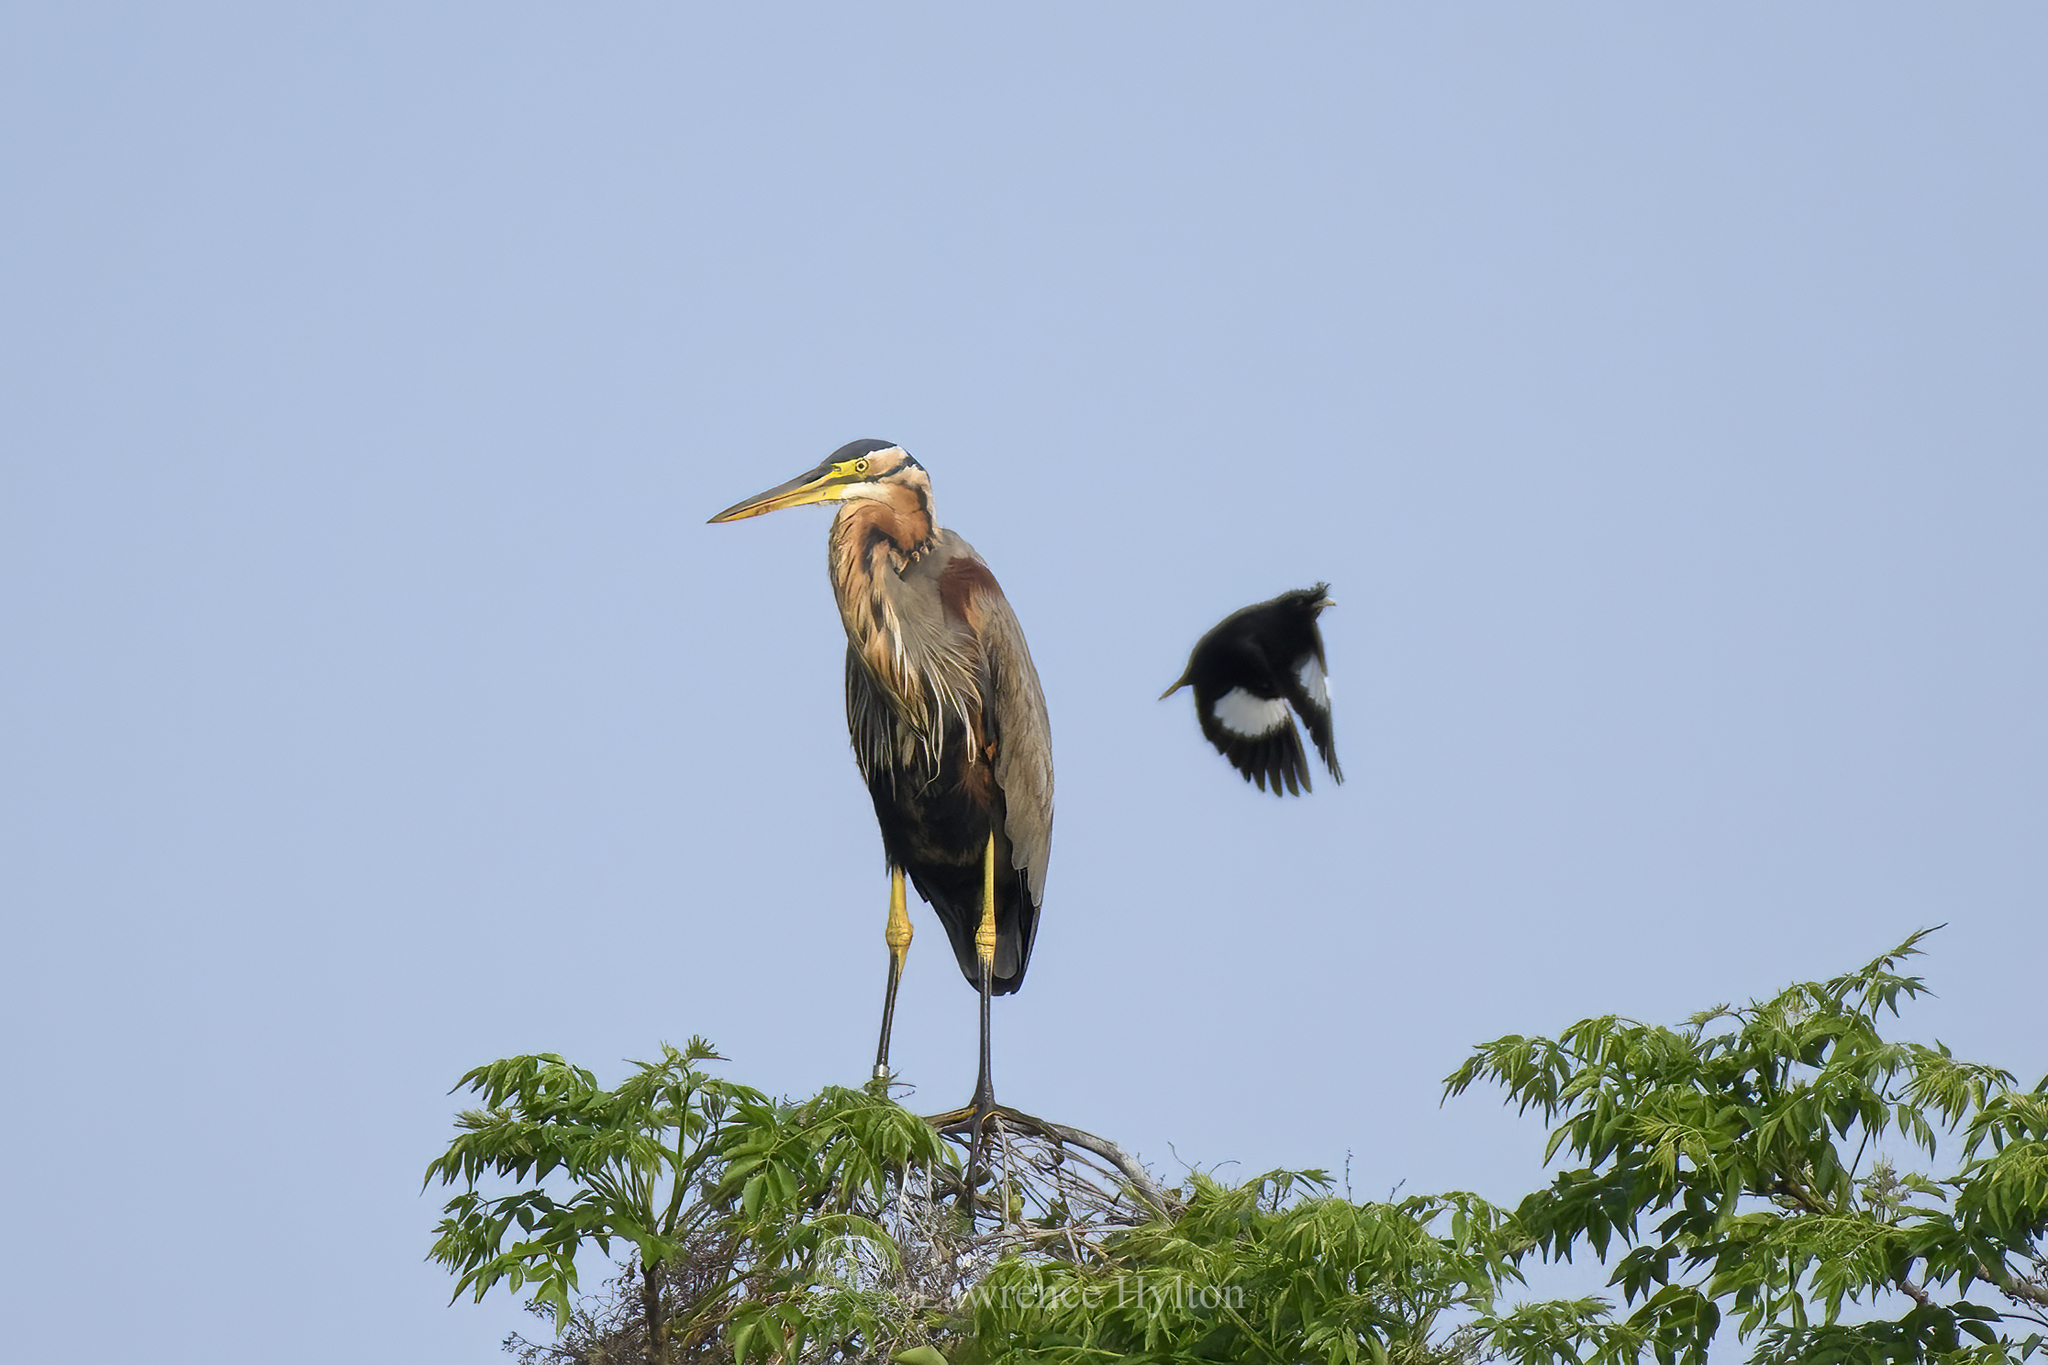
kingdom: Animalia
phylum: Chordata
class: Aves
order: Pelecaniformes
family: Ardeidae
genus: Ardea
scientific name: Ardea purpurea
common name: Purple heron
